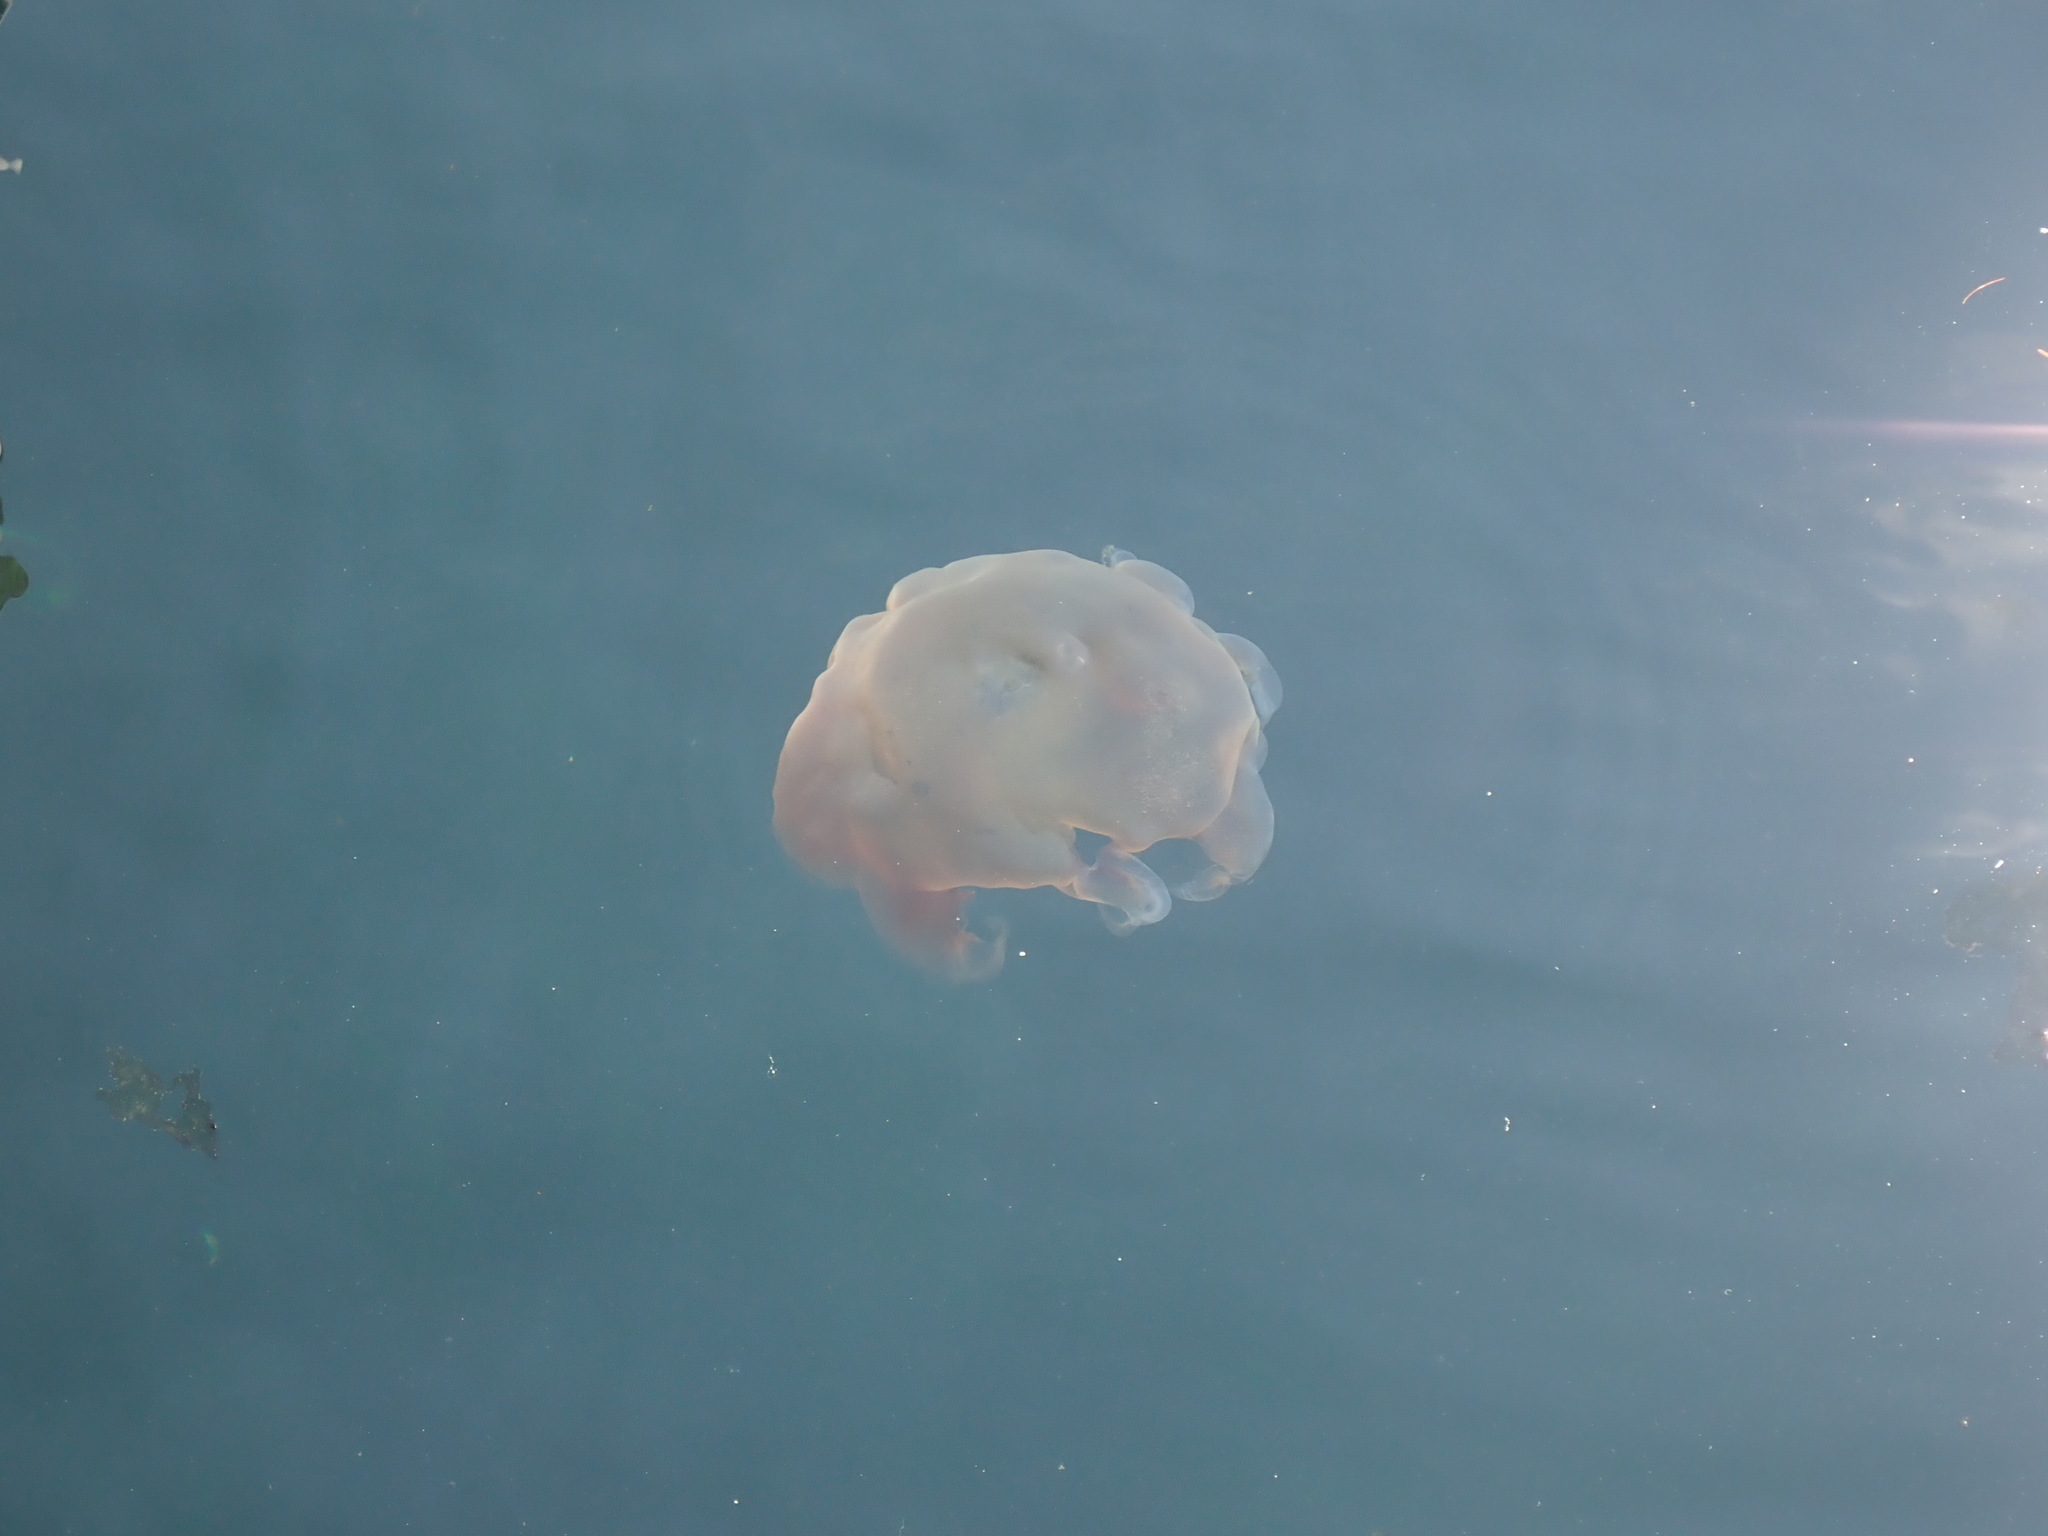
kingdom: Animalia
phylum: Cnidaria
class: Scyphozoa
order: Semaeostomeae
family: Cyaneidae
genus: Cyanea
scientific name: Cyanea ferruginea
